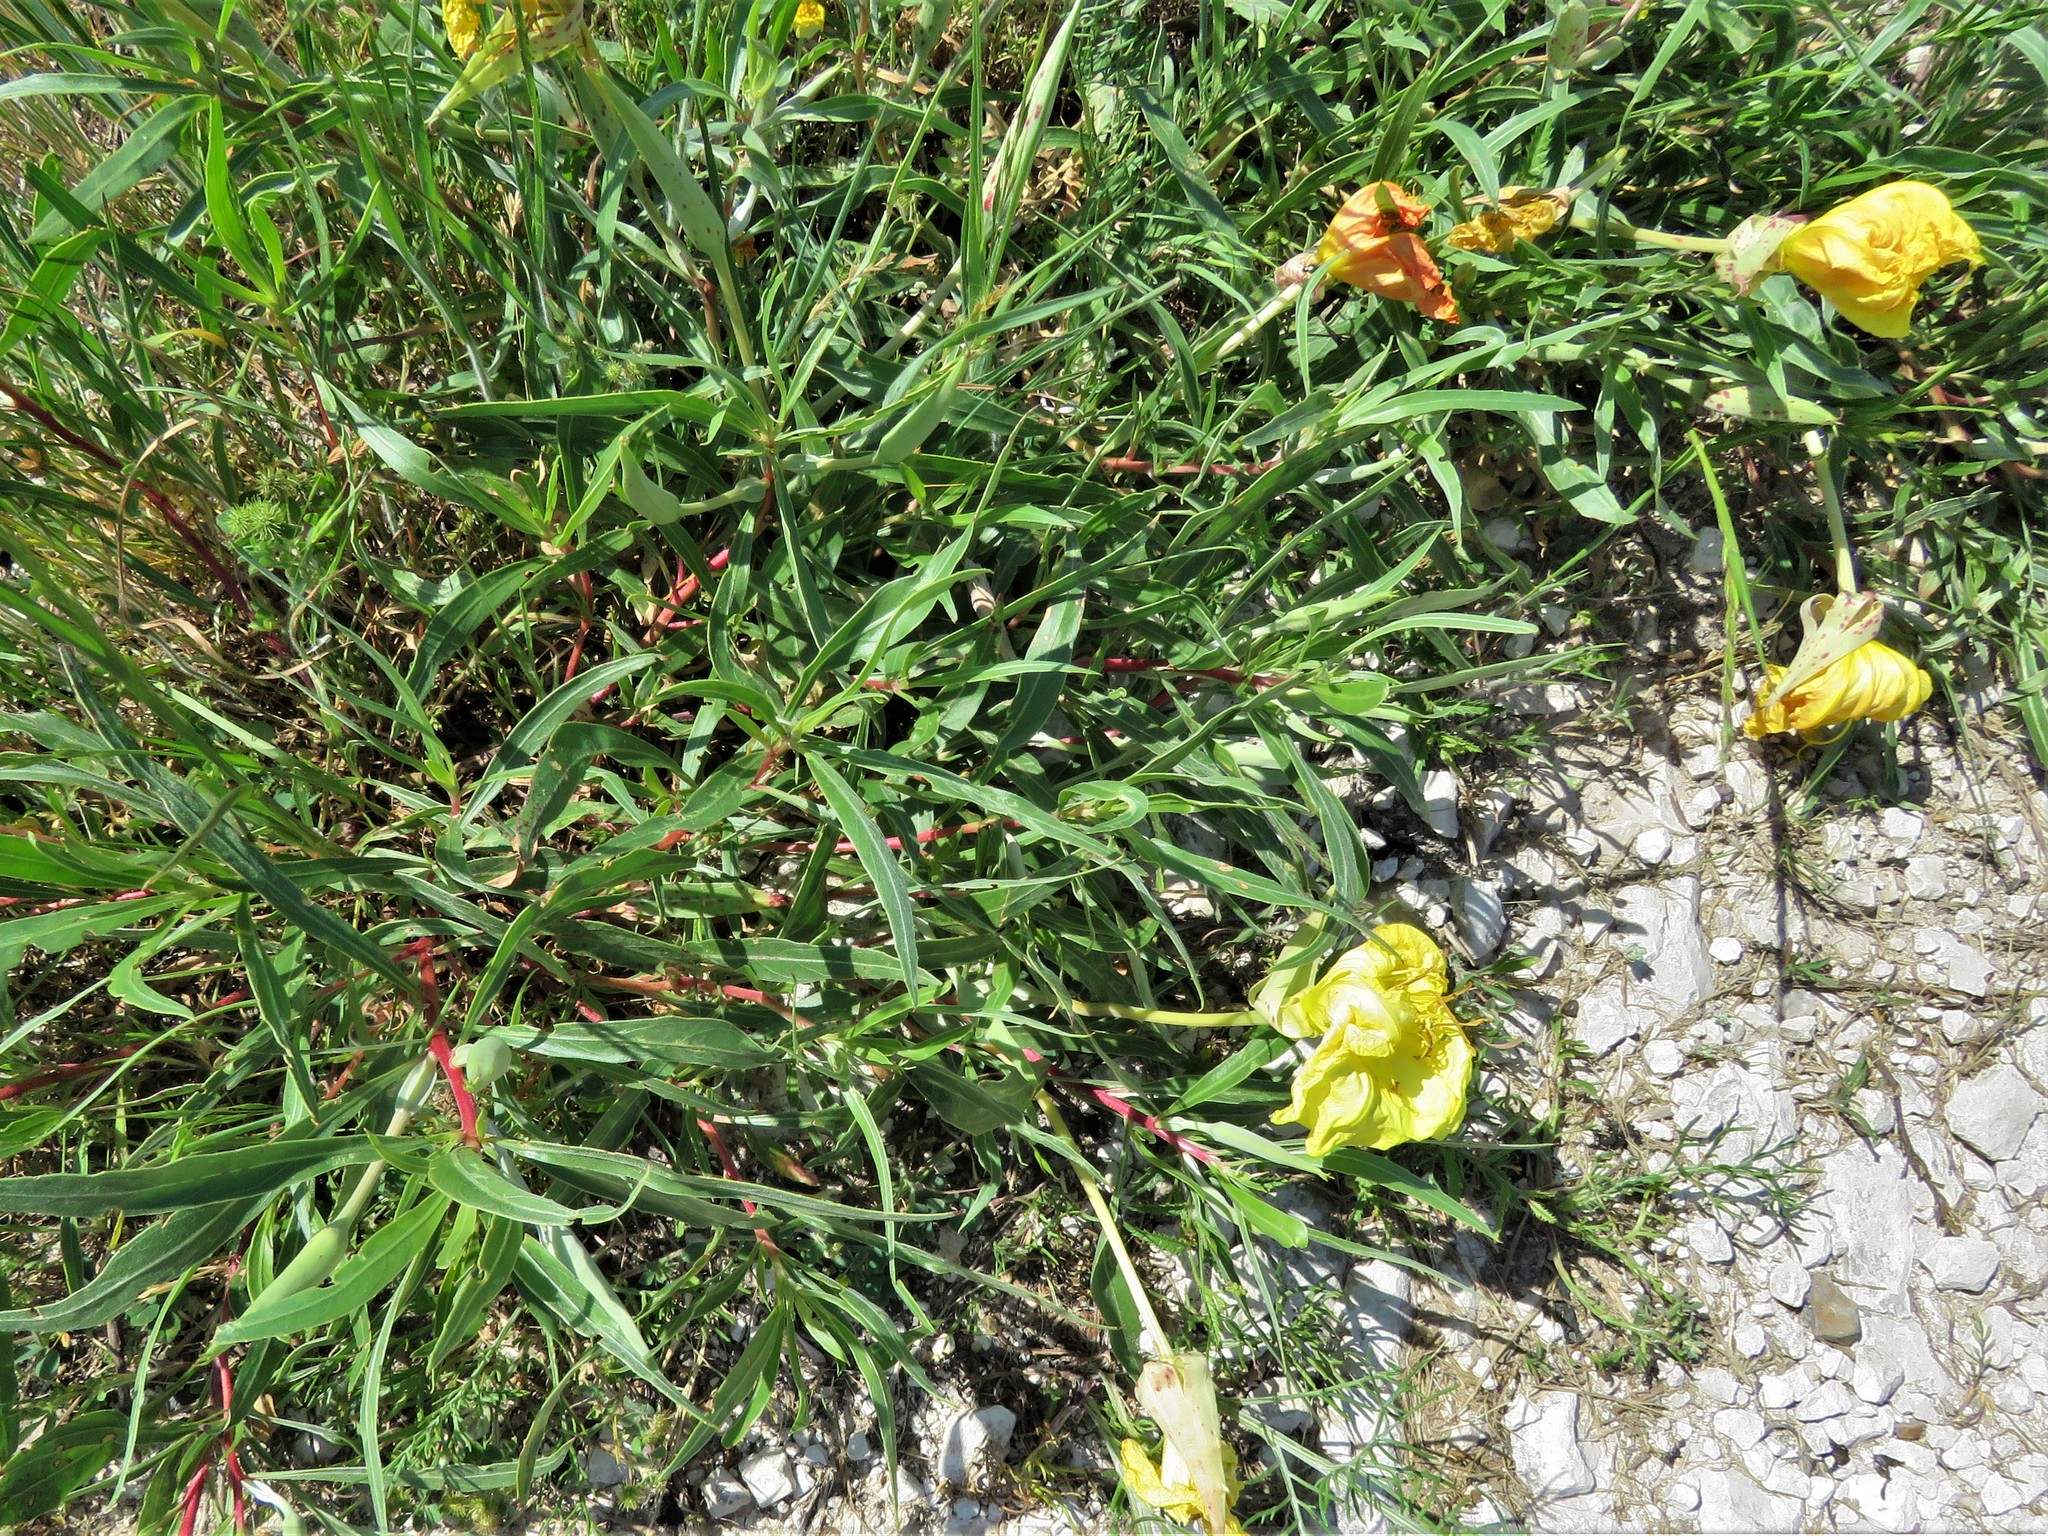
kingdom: Plantae
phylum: Tracheophyta
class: Magnoliopsida
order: Myrtales
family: Onagraceae
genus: Oenothera
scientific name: Oenothera macrocarpa
